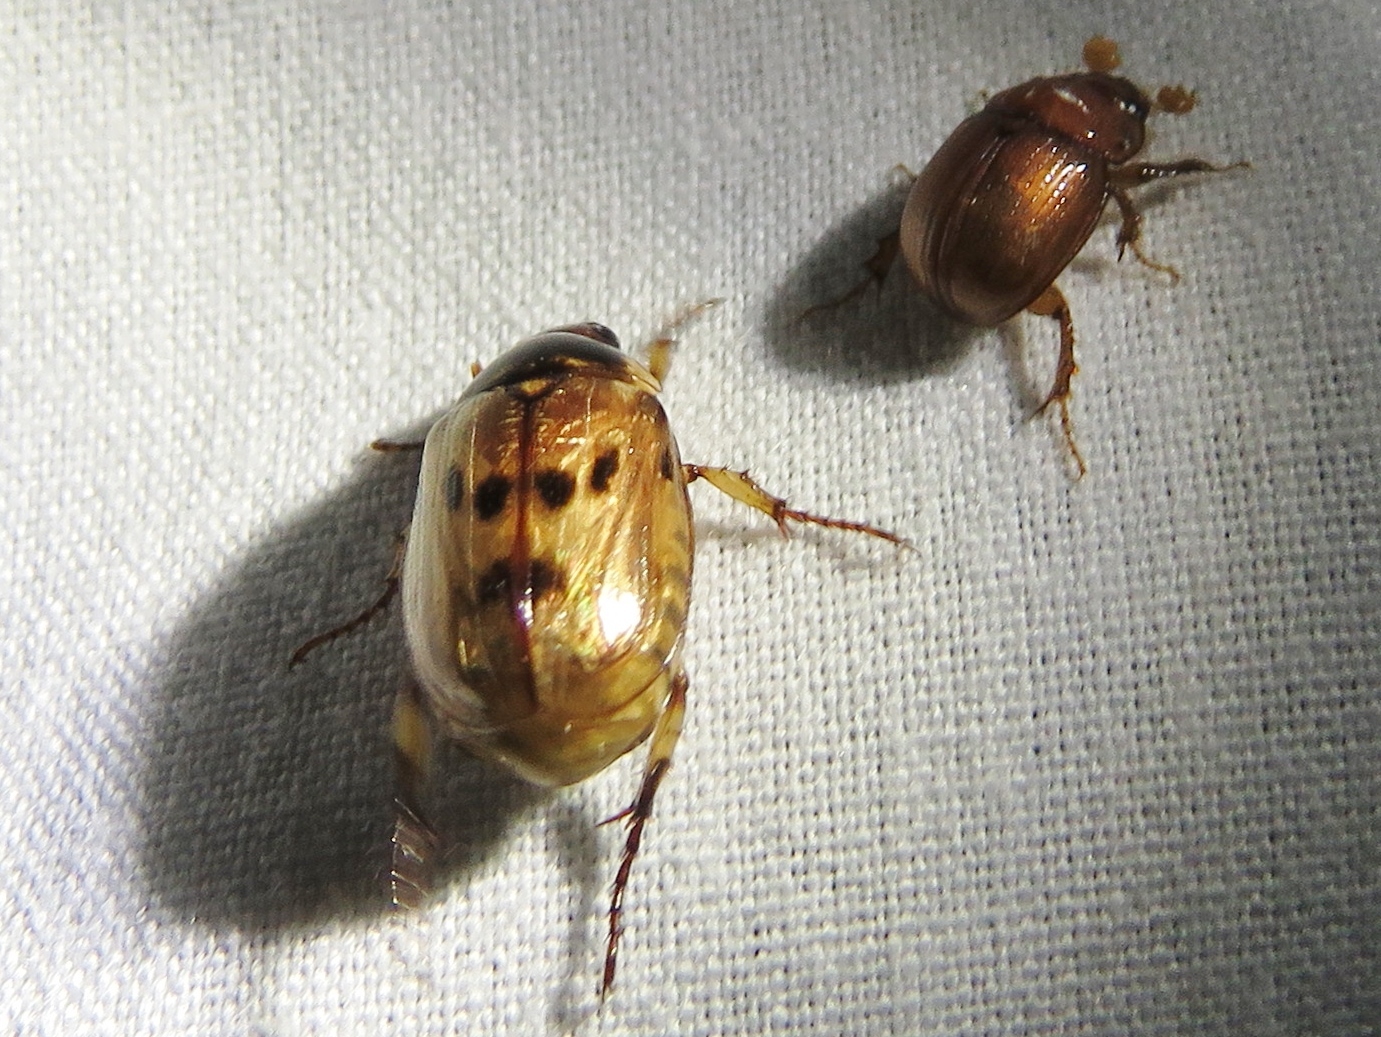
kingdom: Animalia
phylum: Arthropoda
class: Insecta
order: Coleoptera
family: Scarabaeidae
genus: Paranomala
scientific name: Paranomala undulata
